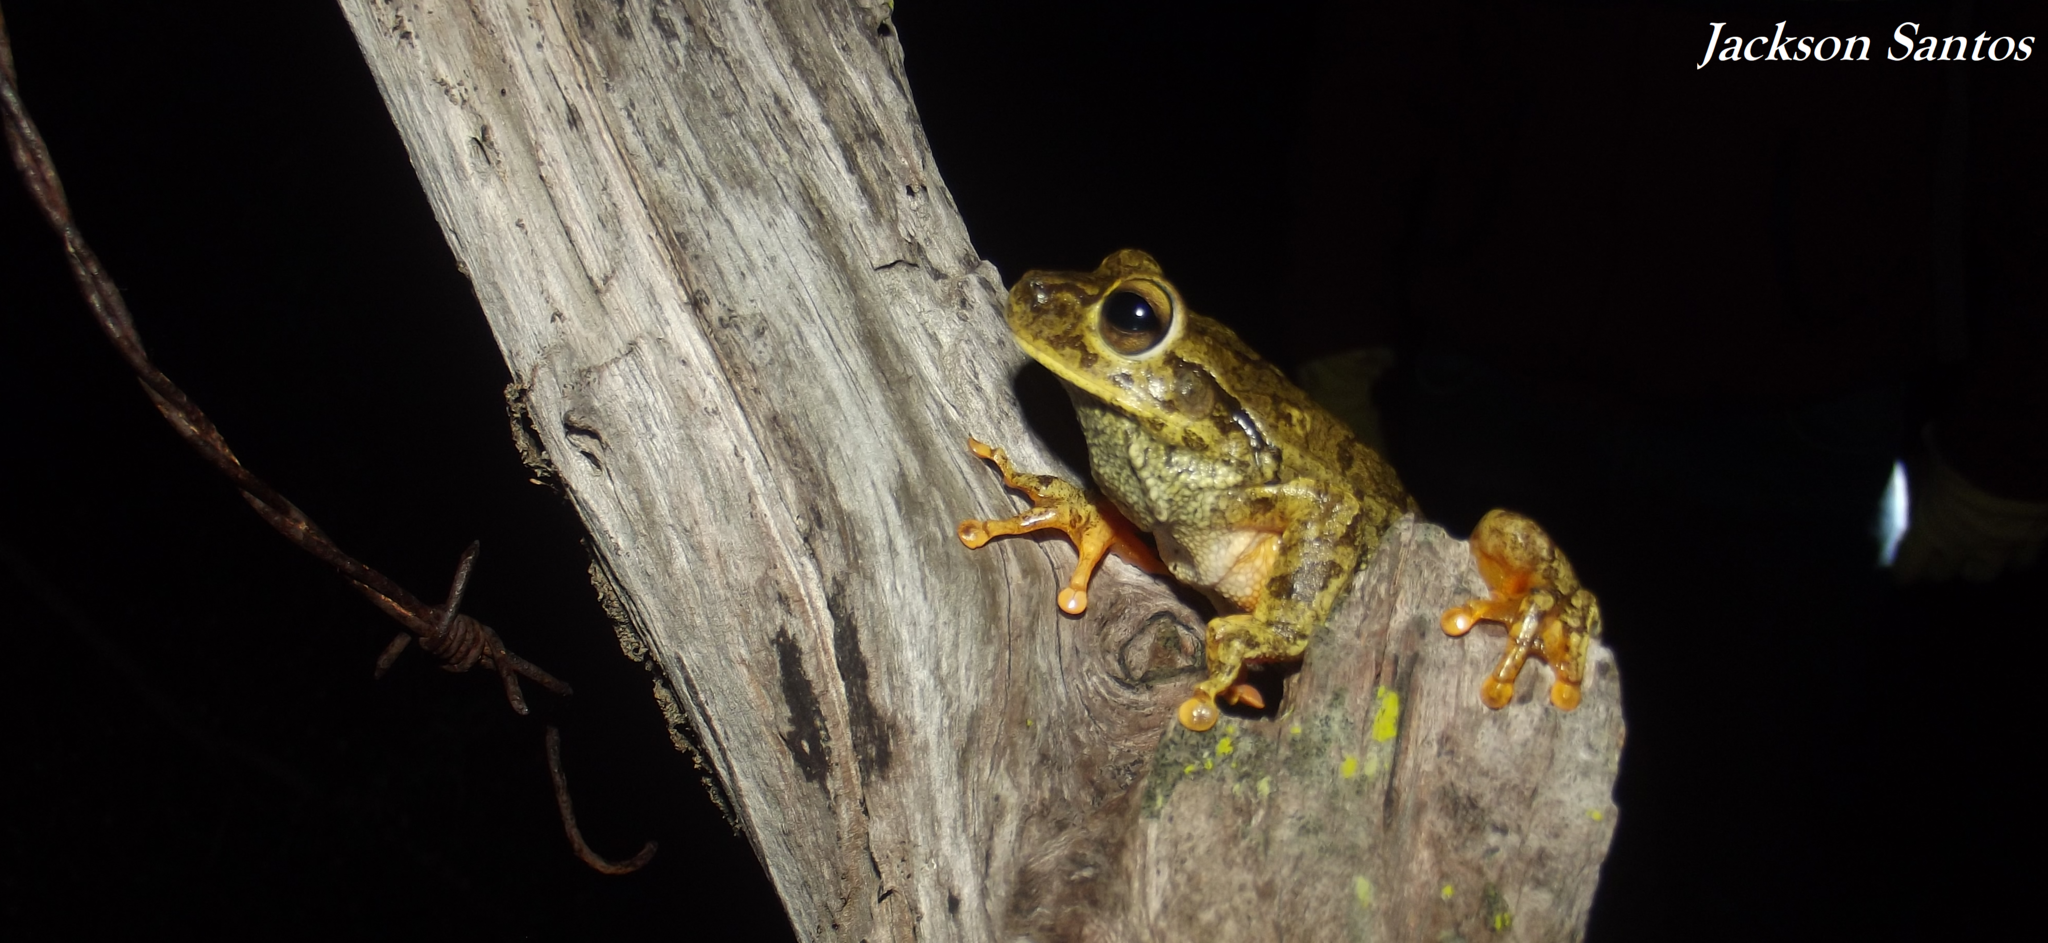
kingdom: Animalia
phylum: Chordata
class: Amphibia
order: Anura
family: Hylidae
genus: Boana
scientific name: Boana crepitans
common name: Emerald-eyed treefrog
